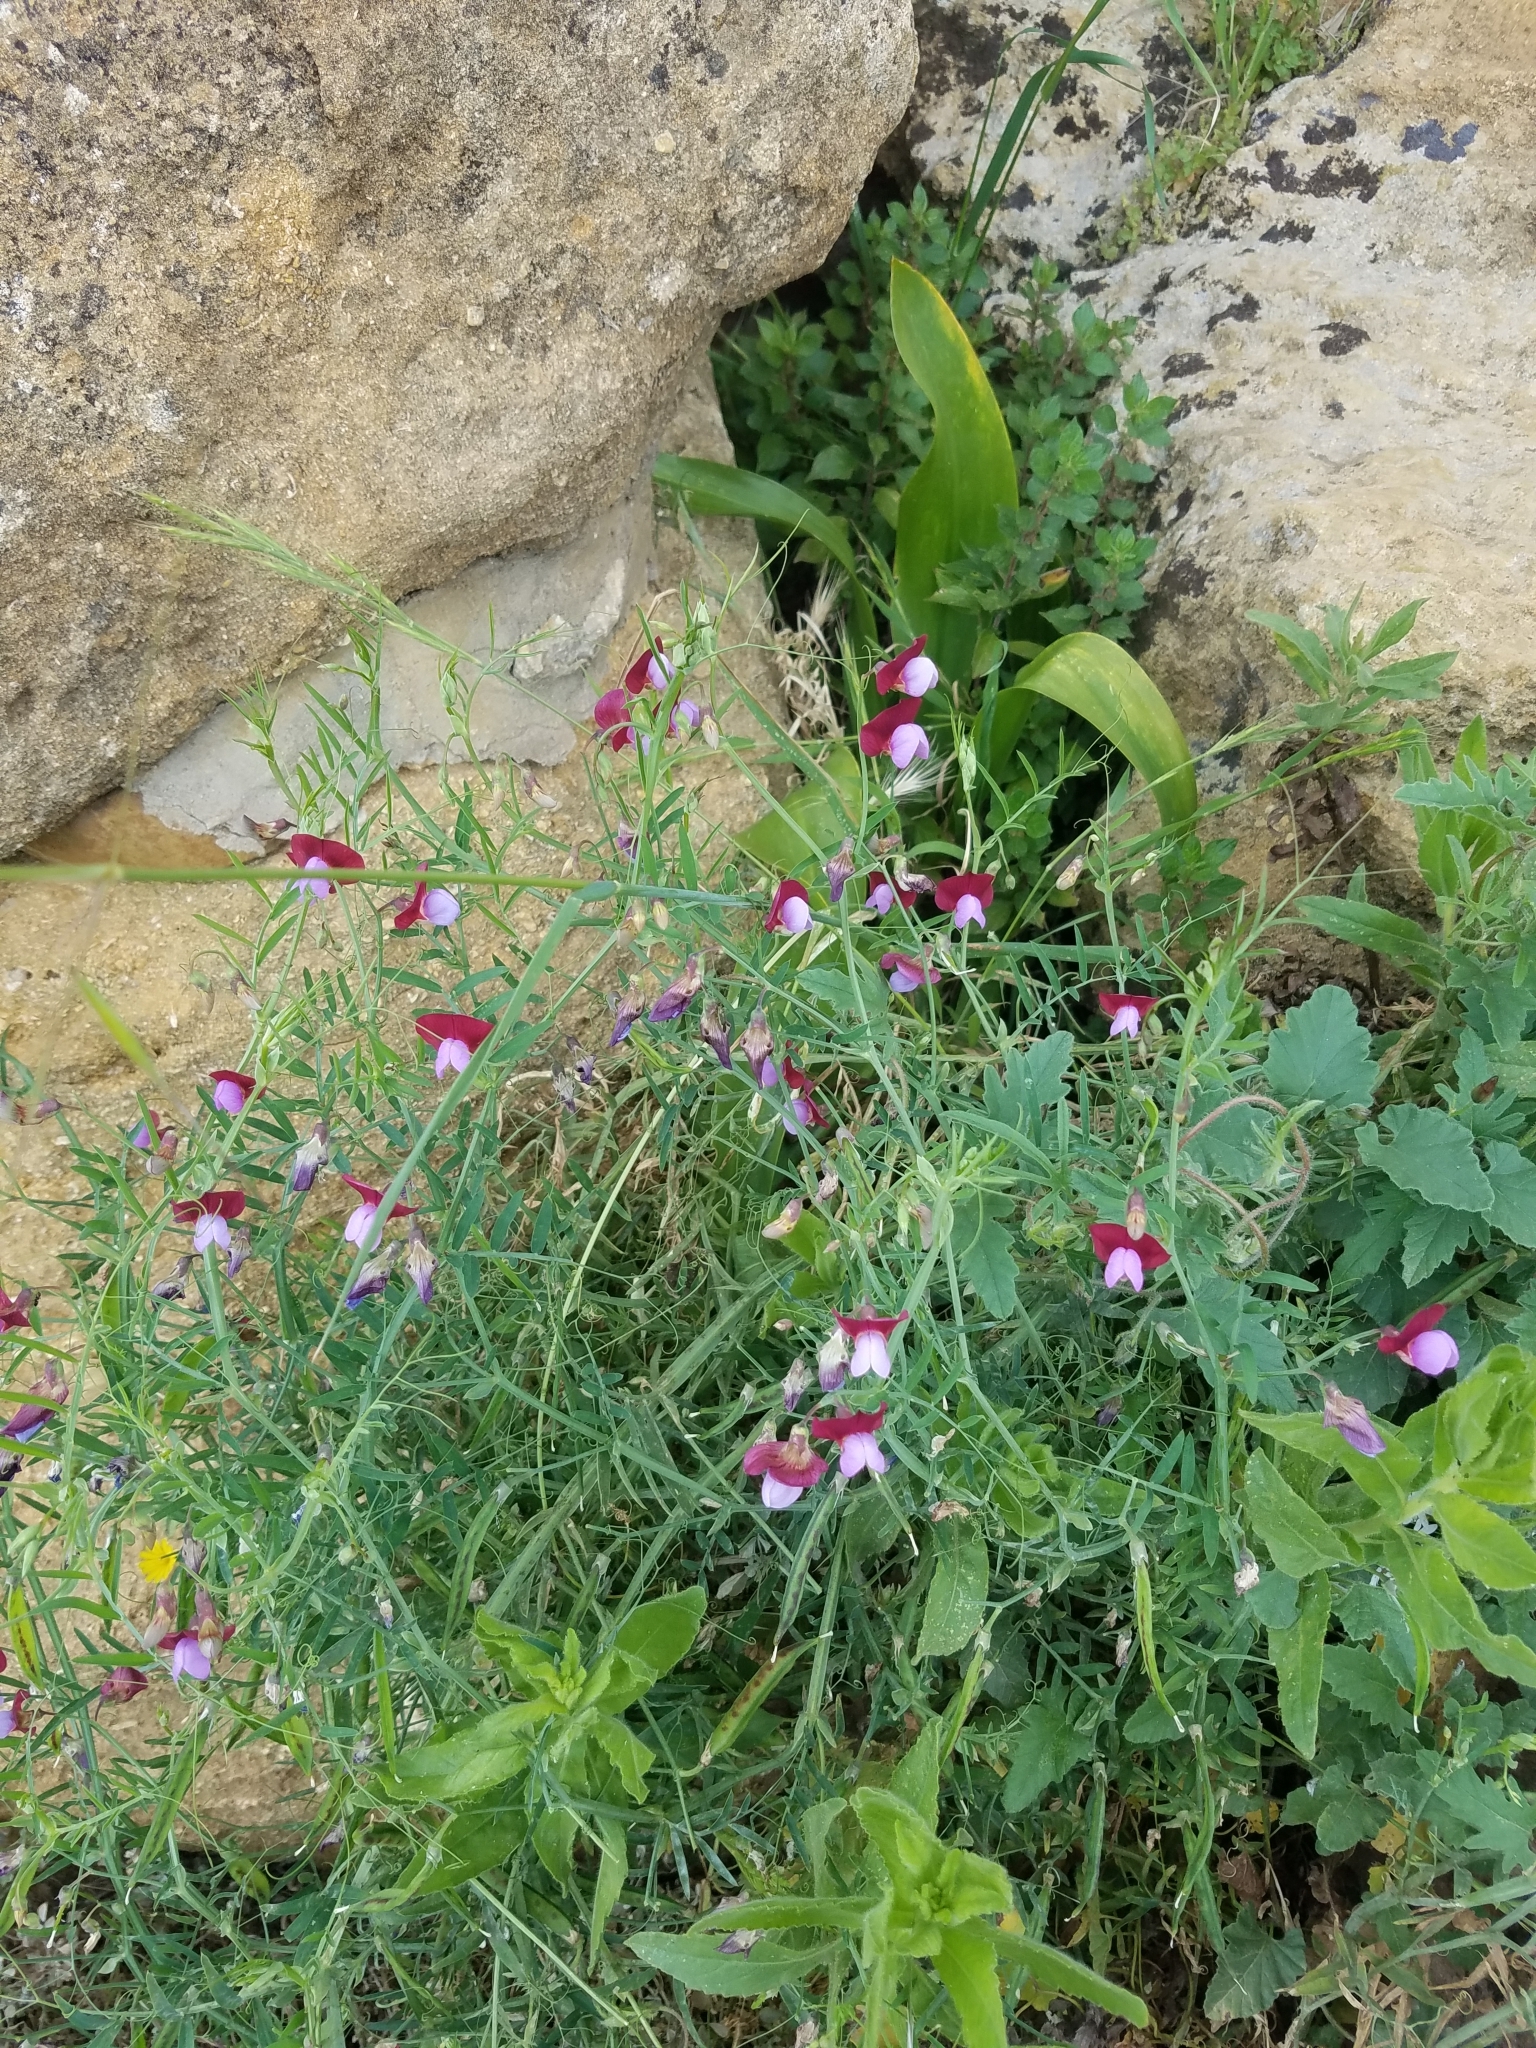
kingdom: Plantae
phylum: Tracheophyta
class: Magnoliopsida
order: Fabales
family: Fabaceae
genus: Lathyrus
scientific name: Lathyrus clymenum
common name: Spanish vetchling
